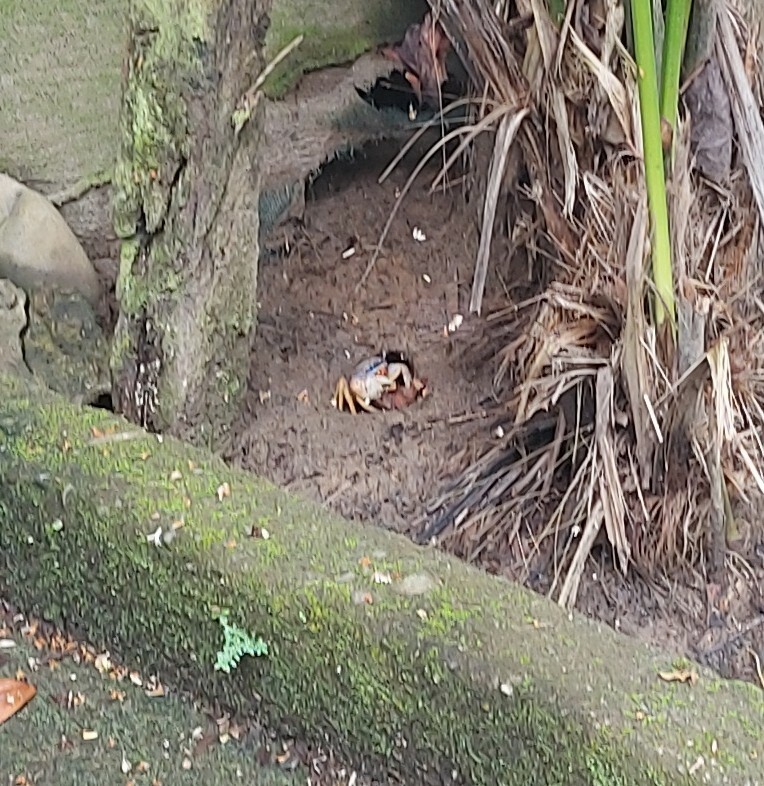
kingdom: Animalia
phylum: Arthropoda
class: Malacostraca
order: Decapoda
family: Gecarcinidae
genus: Cardisoma
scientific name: Cardisoma guanhumi
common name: Great land crab
